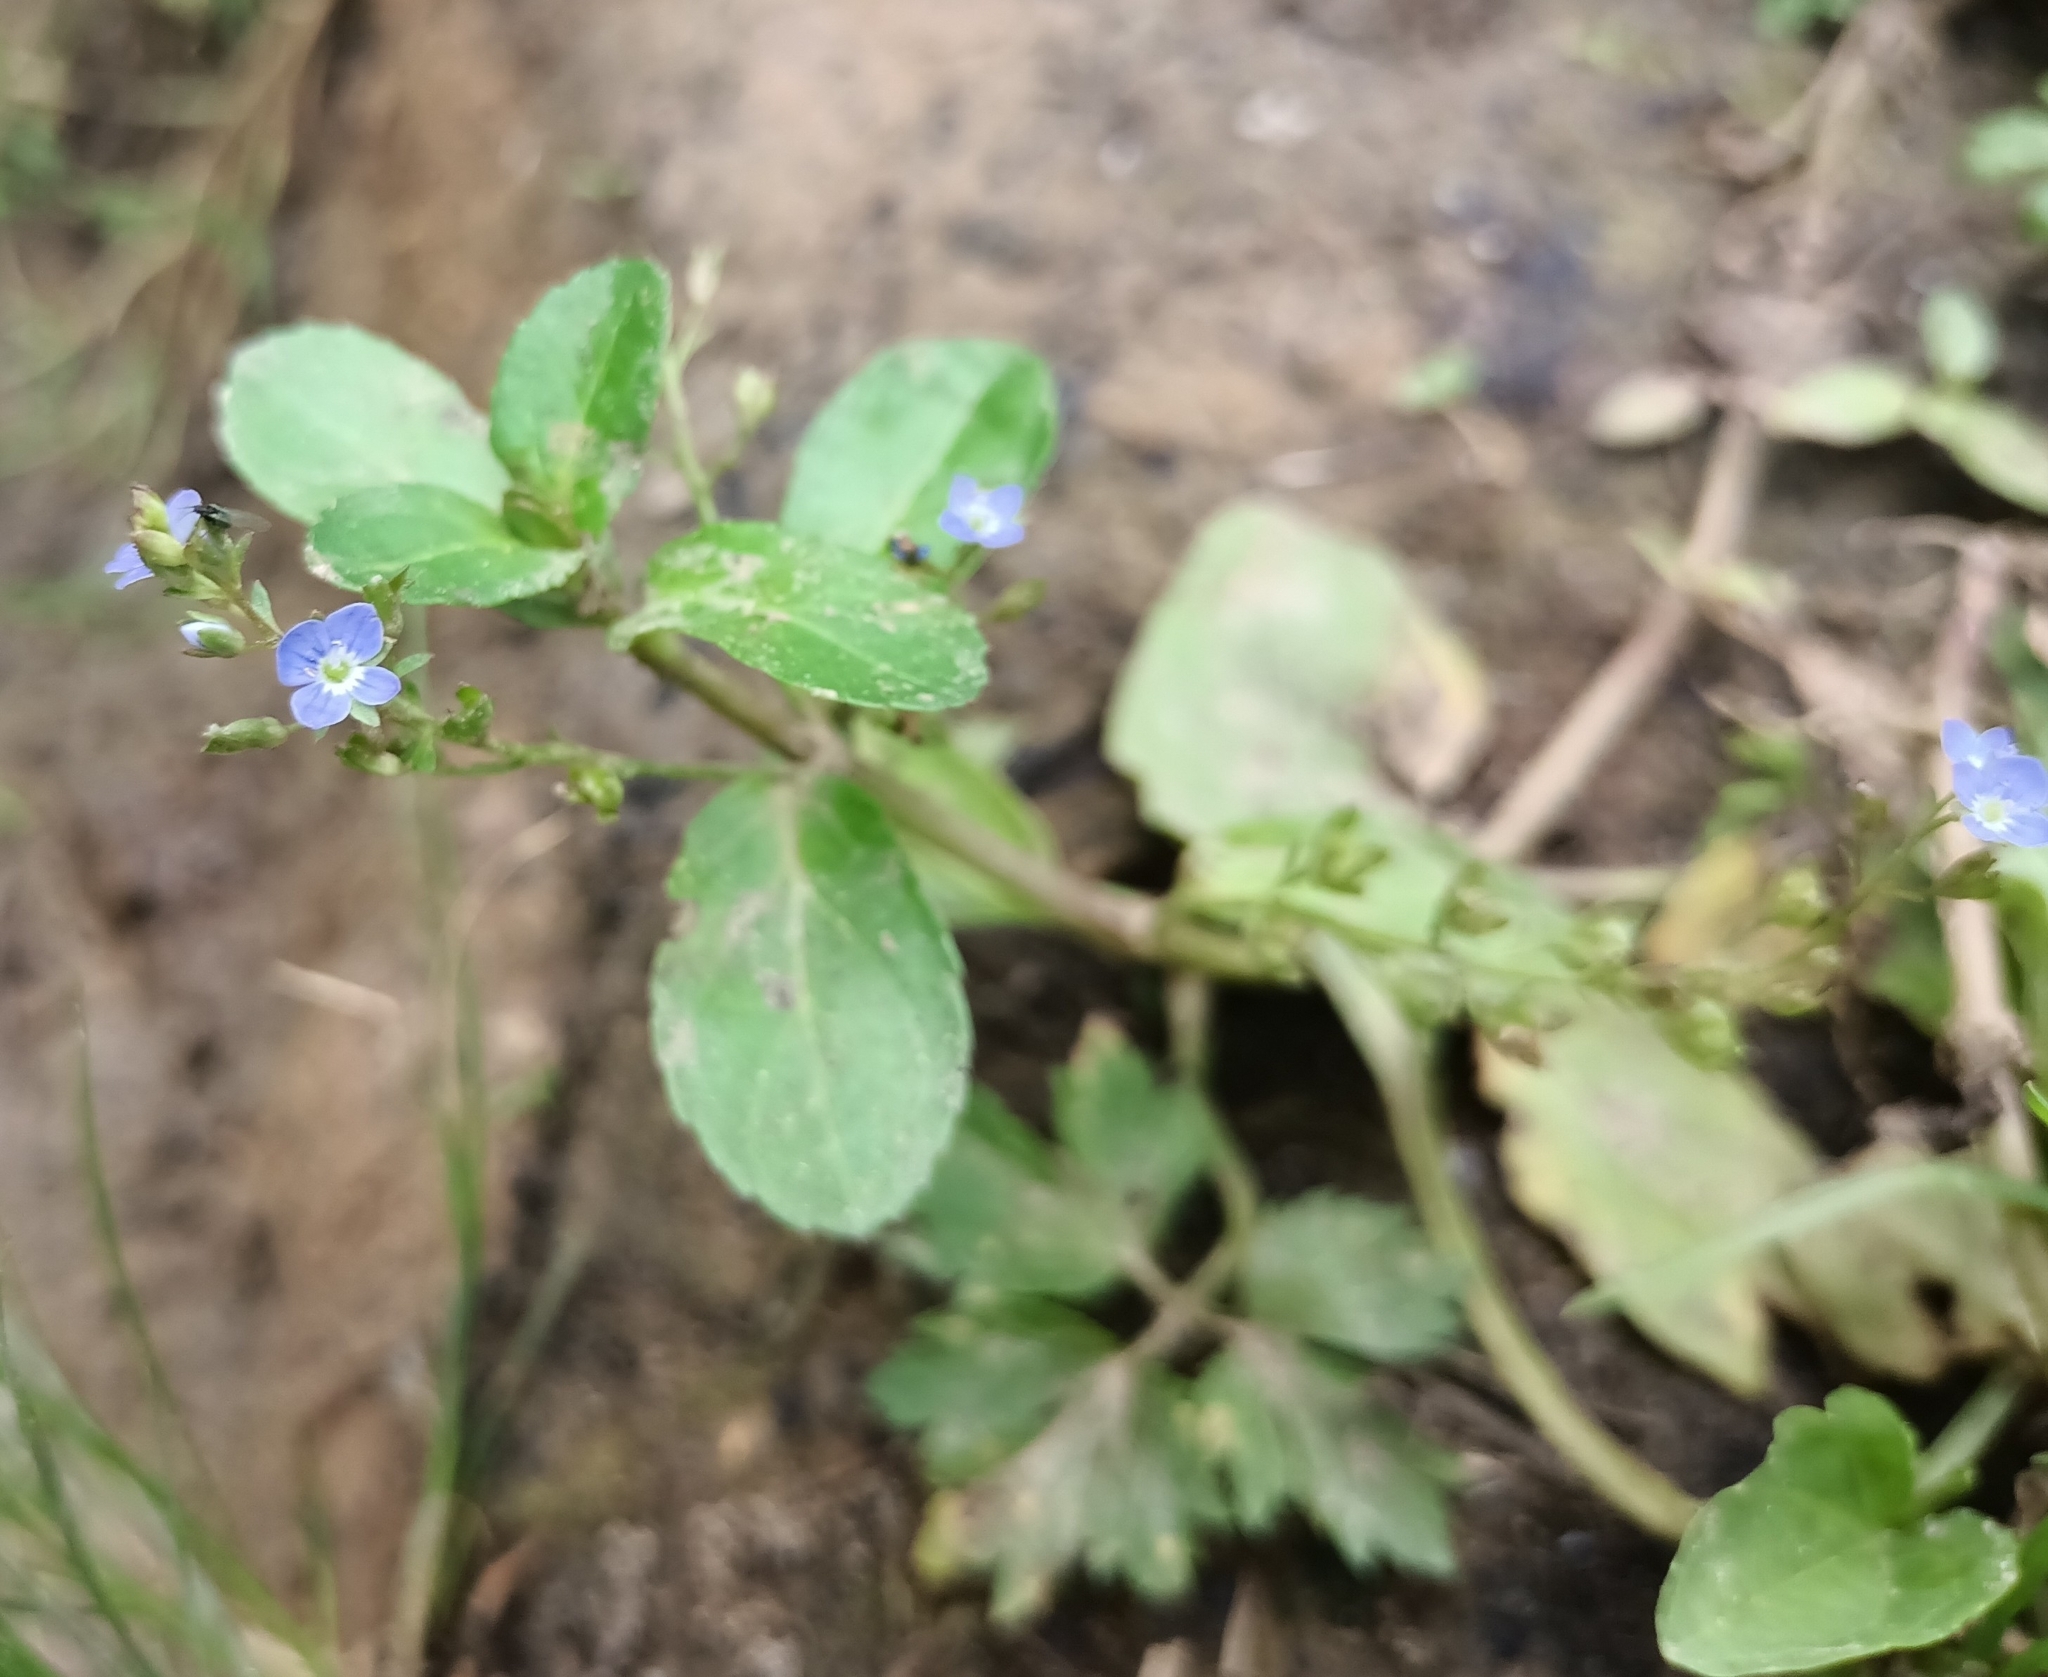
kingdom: Plantae
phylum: Tracheophyta
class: Magnoliopsida
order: Lamiales
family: Plantaginaceae
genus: Veronica
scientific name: Veronica beccabunga
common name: Brooklime
